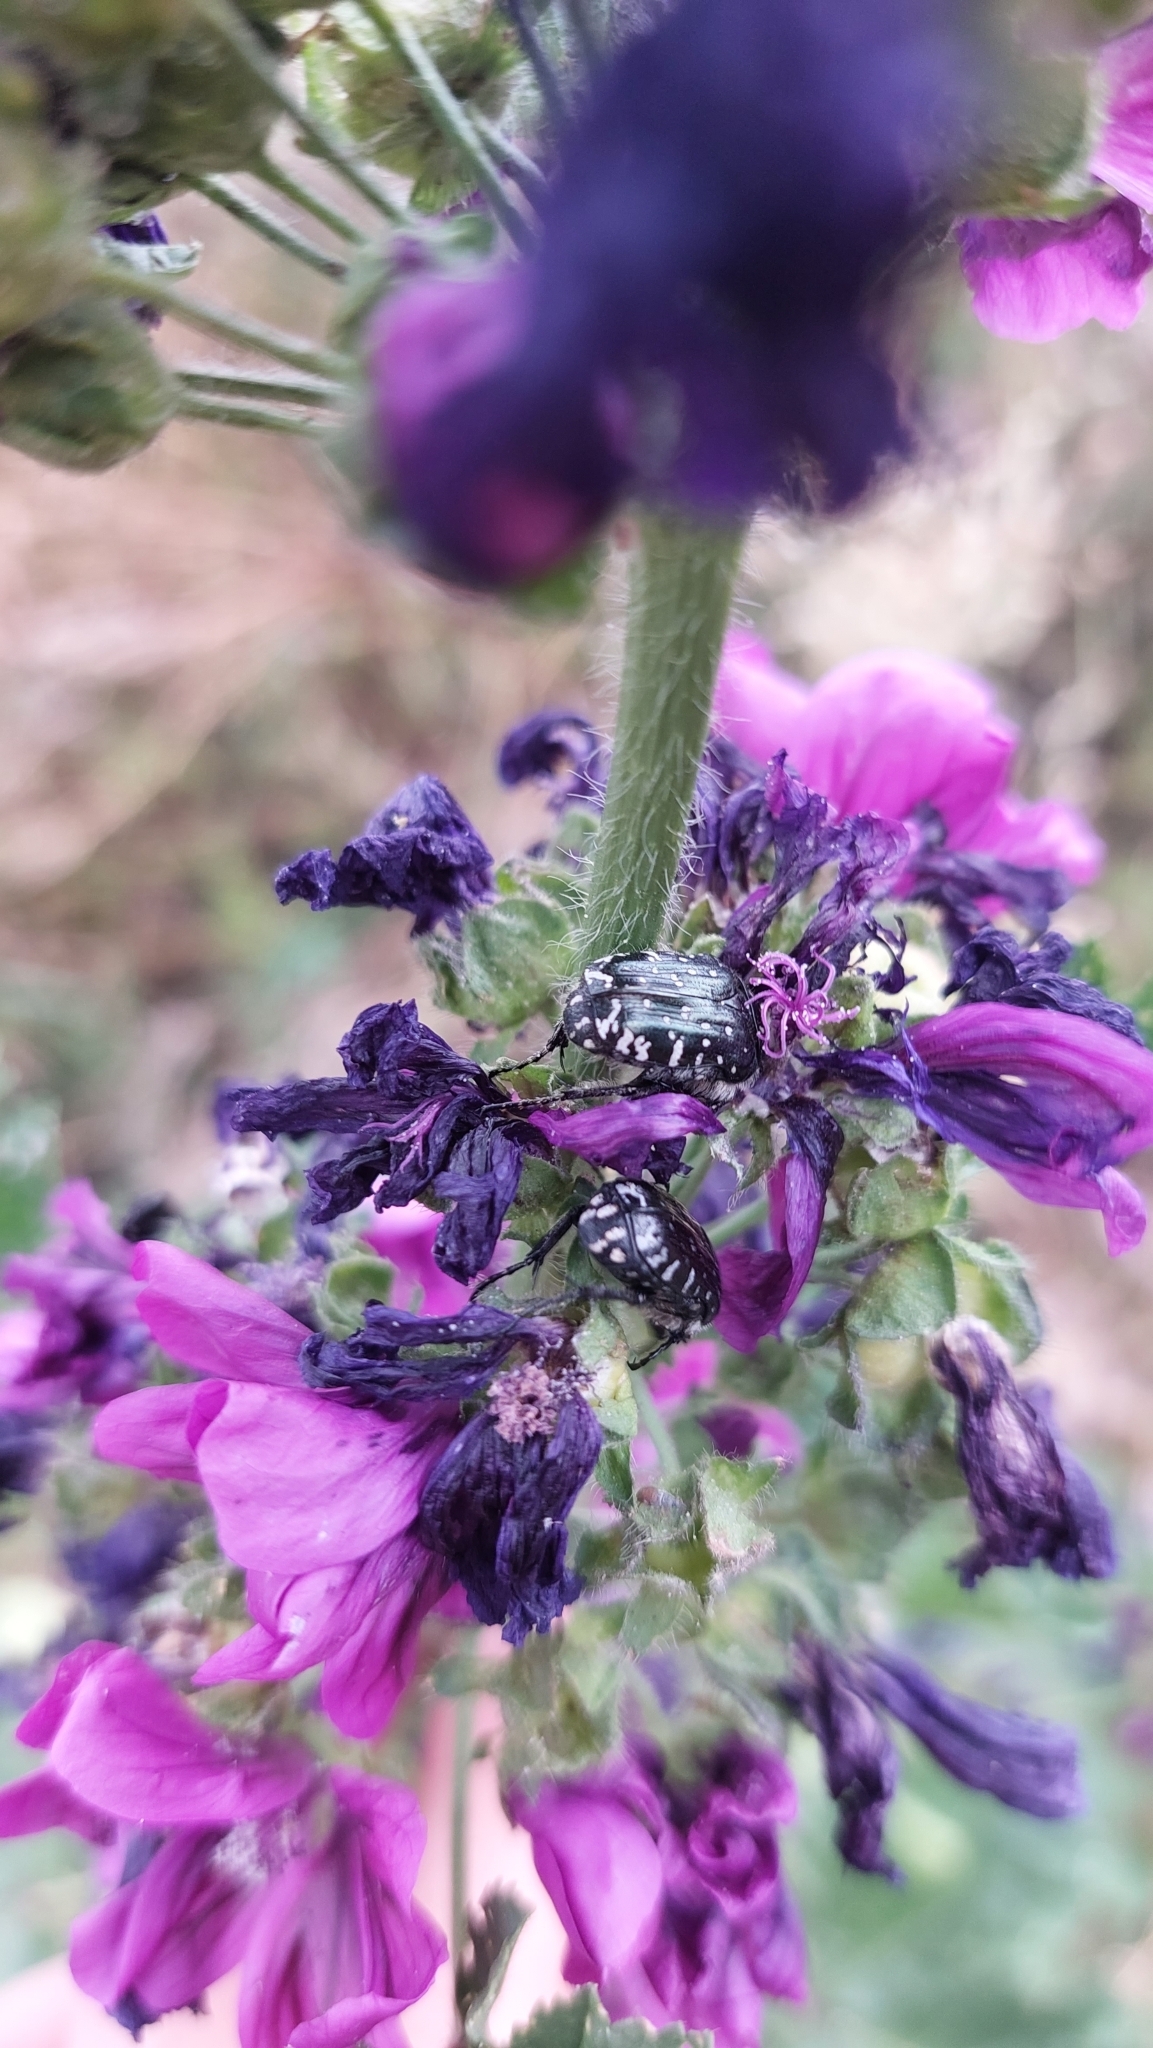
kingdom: Animalia
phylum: Arthropoda
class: Insecta
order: Coleoptera
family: Scarabaeidae
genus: Oxythyrea
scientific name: Oxythyrea funesta
